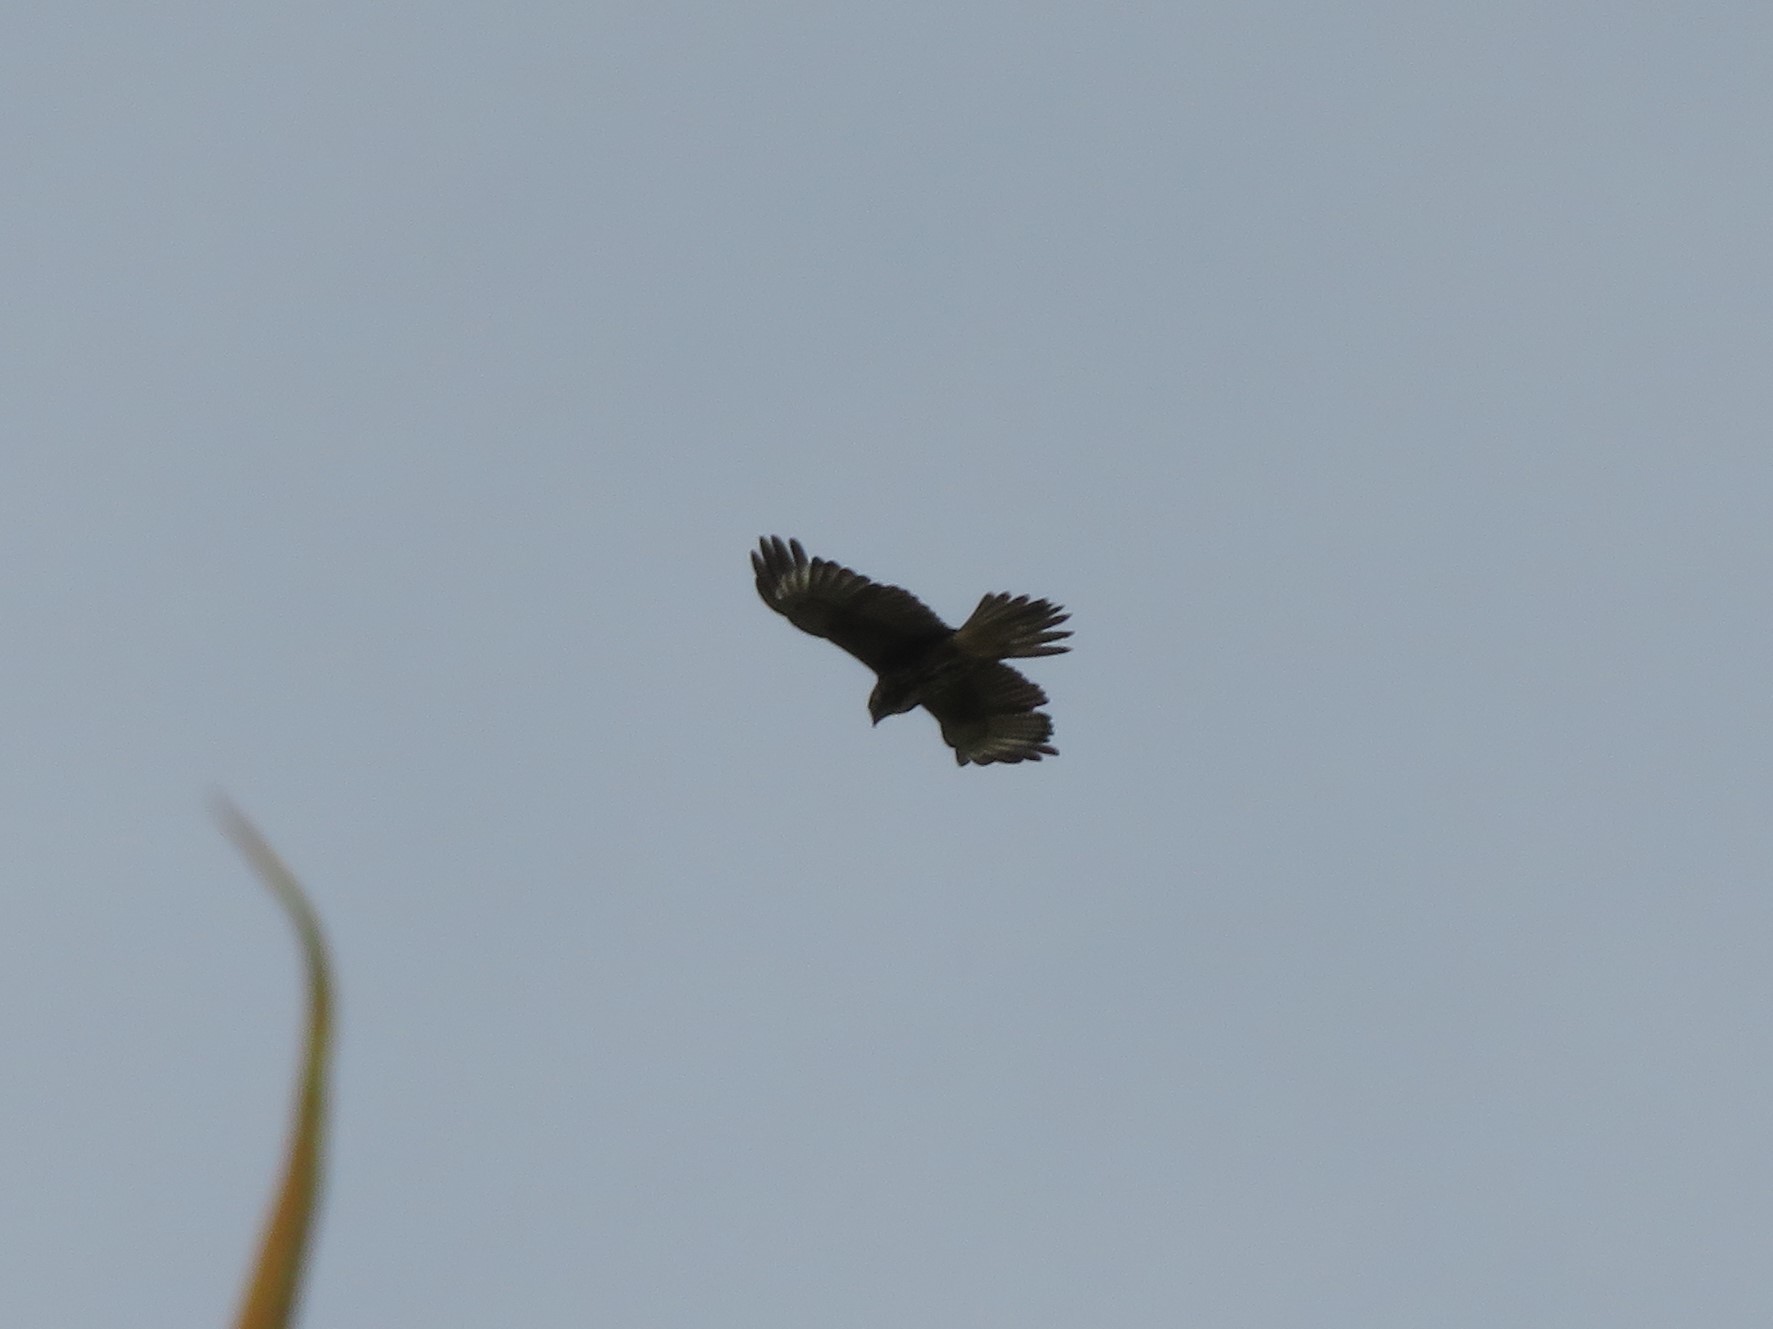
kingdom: Animalia
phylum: Chordata
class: Aves
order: Accipitriformes
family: Accipitridae
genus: Parabuteo
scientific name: Parabuteo unicinctus
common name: Harris's hawk
